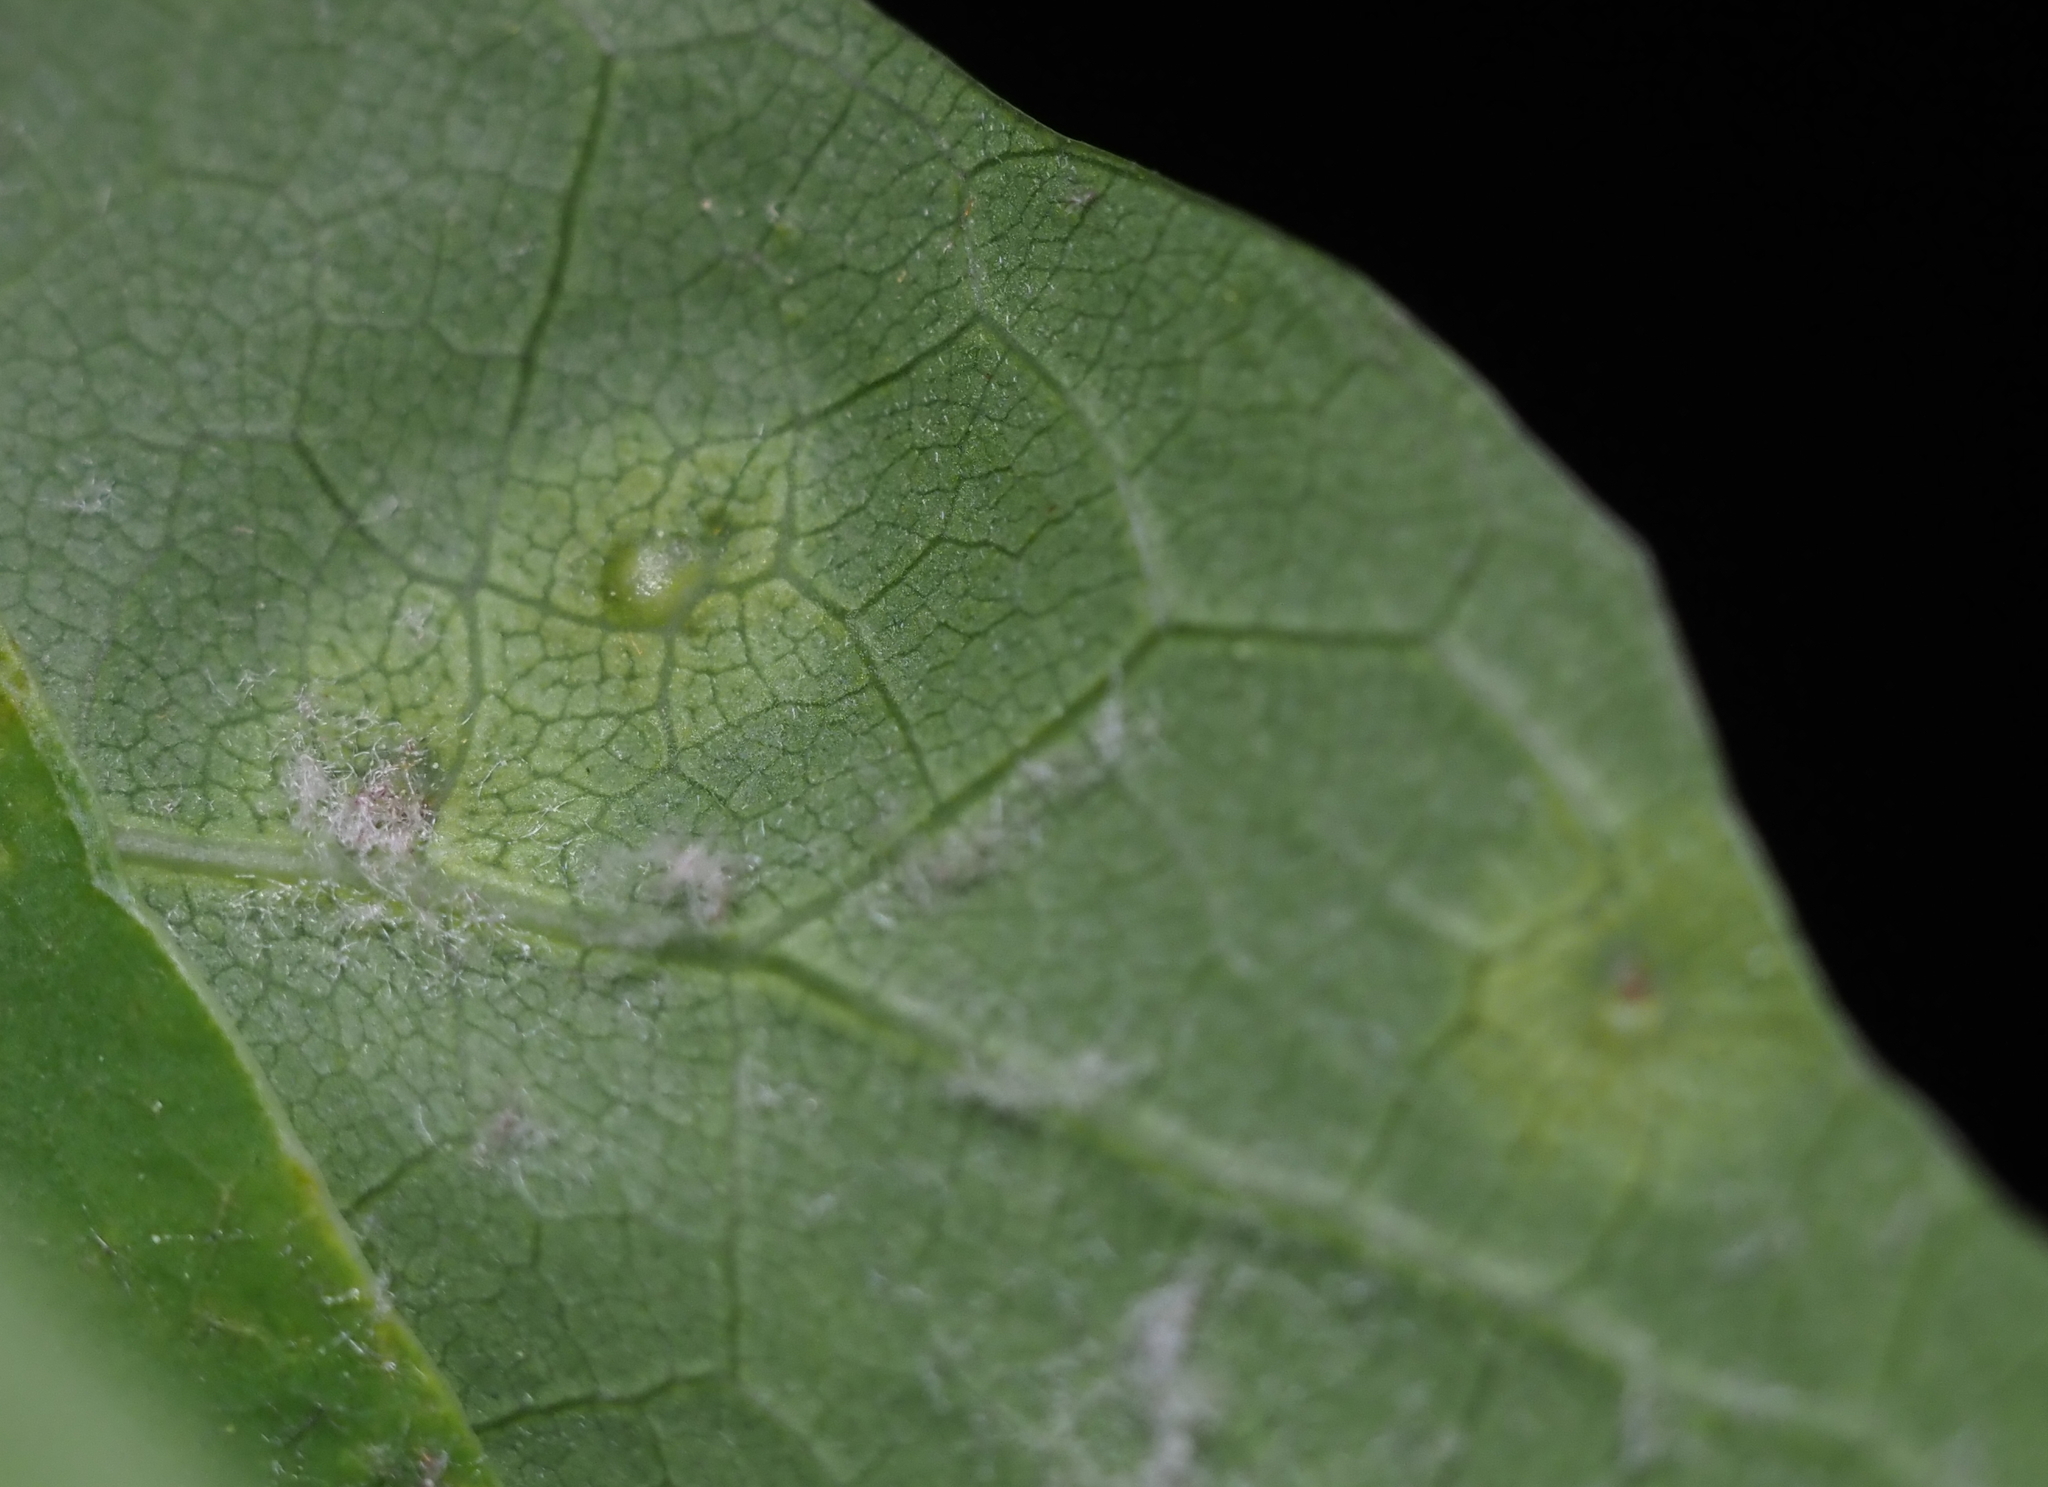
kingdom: Animalia
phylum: Arthropoda
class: Insecta
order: Hymenoptera
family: Cynipidae
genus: Neuroterus
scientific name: Neuroterus quercusverrucarum
